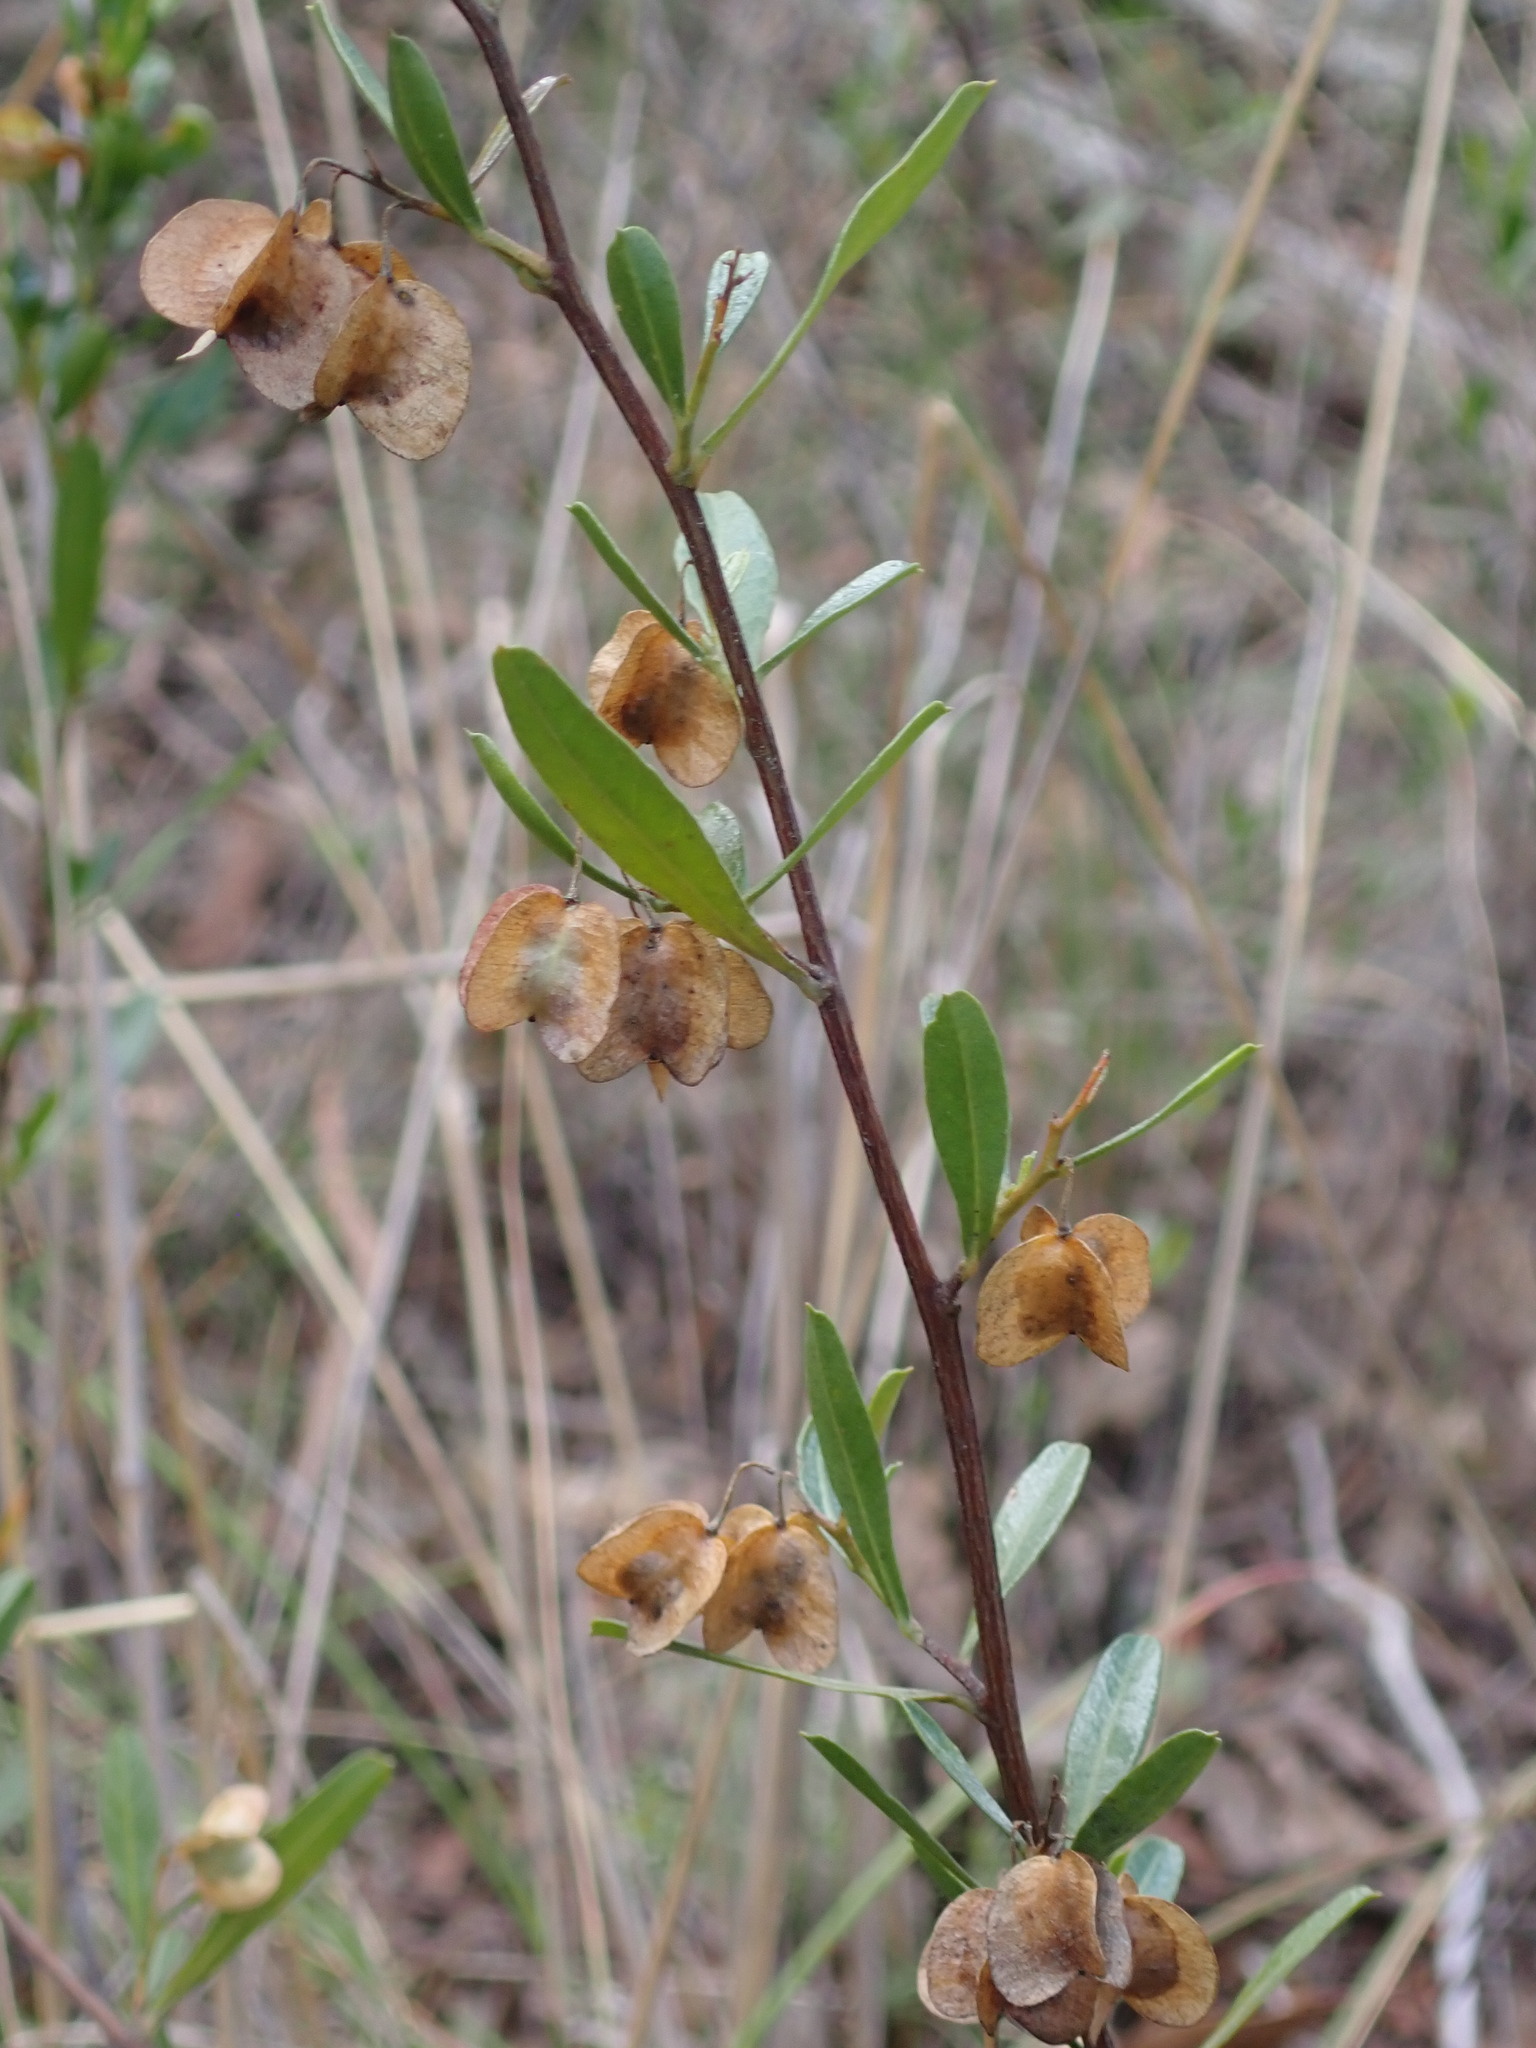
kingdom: Plantae
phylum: Tracheophyta
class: Magnoliopsida
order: Sapindales
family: Sapindaceae
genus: Dodonaea
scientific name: Dodonaea viscosa
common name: Hopbush
